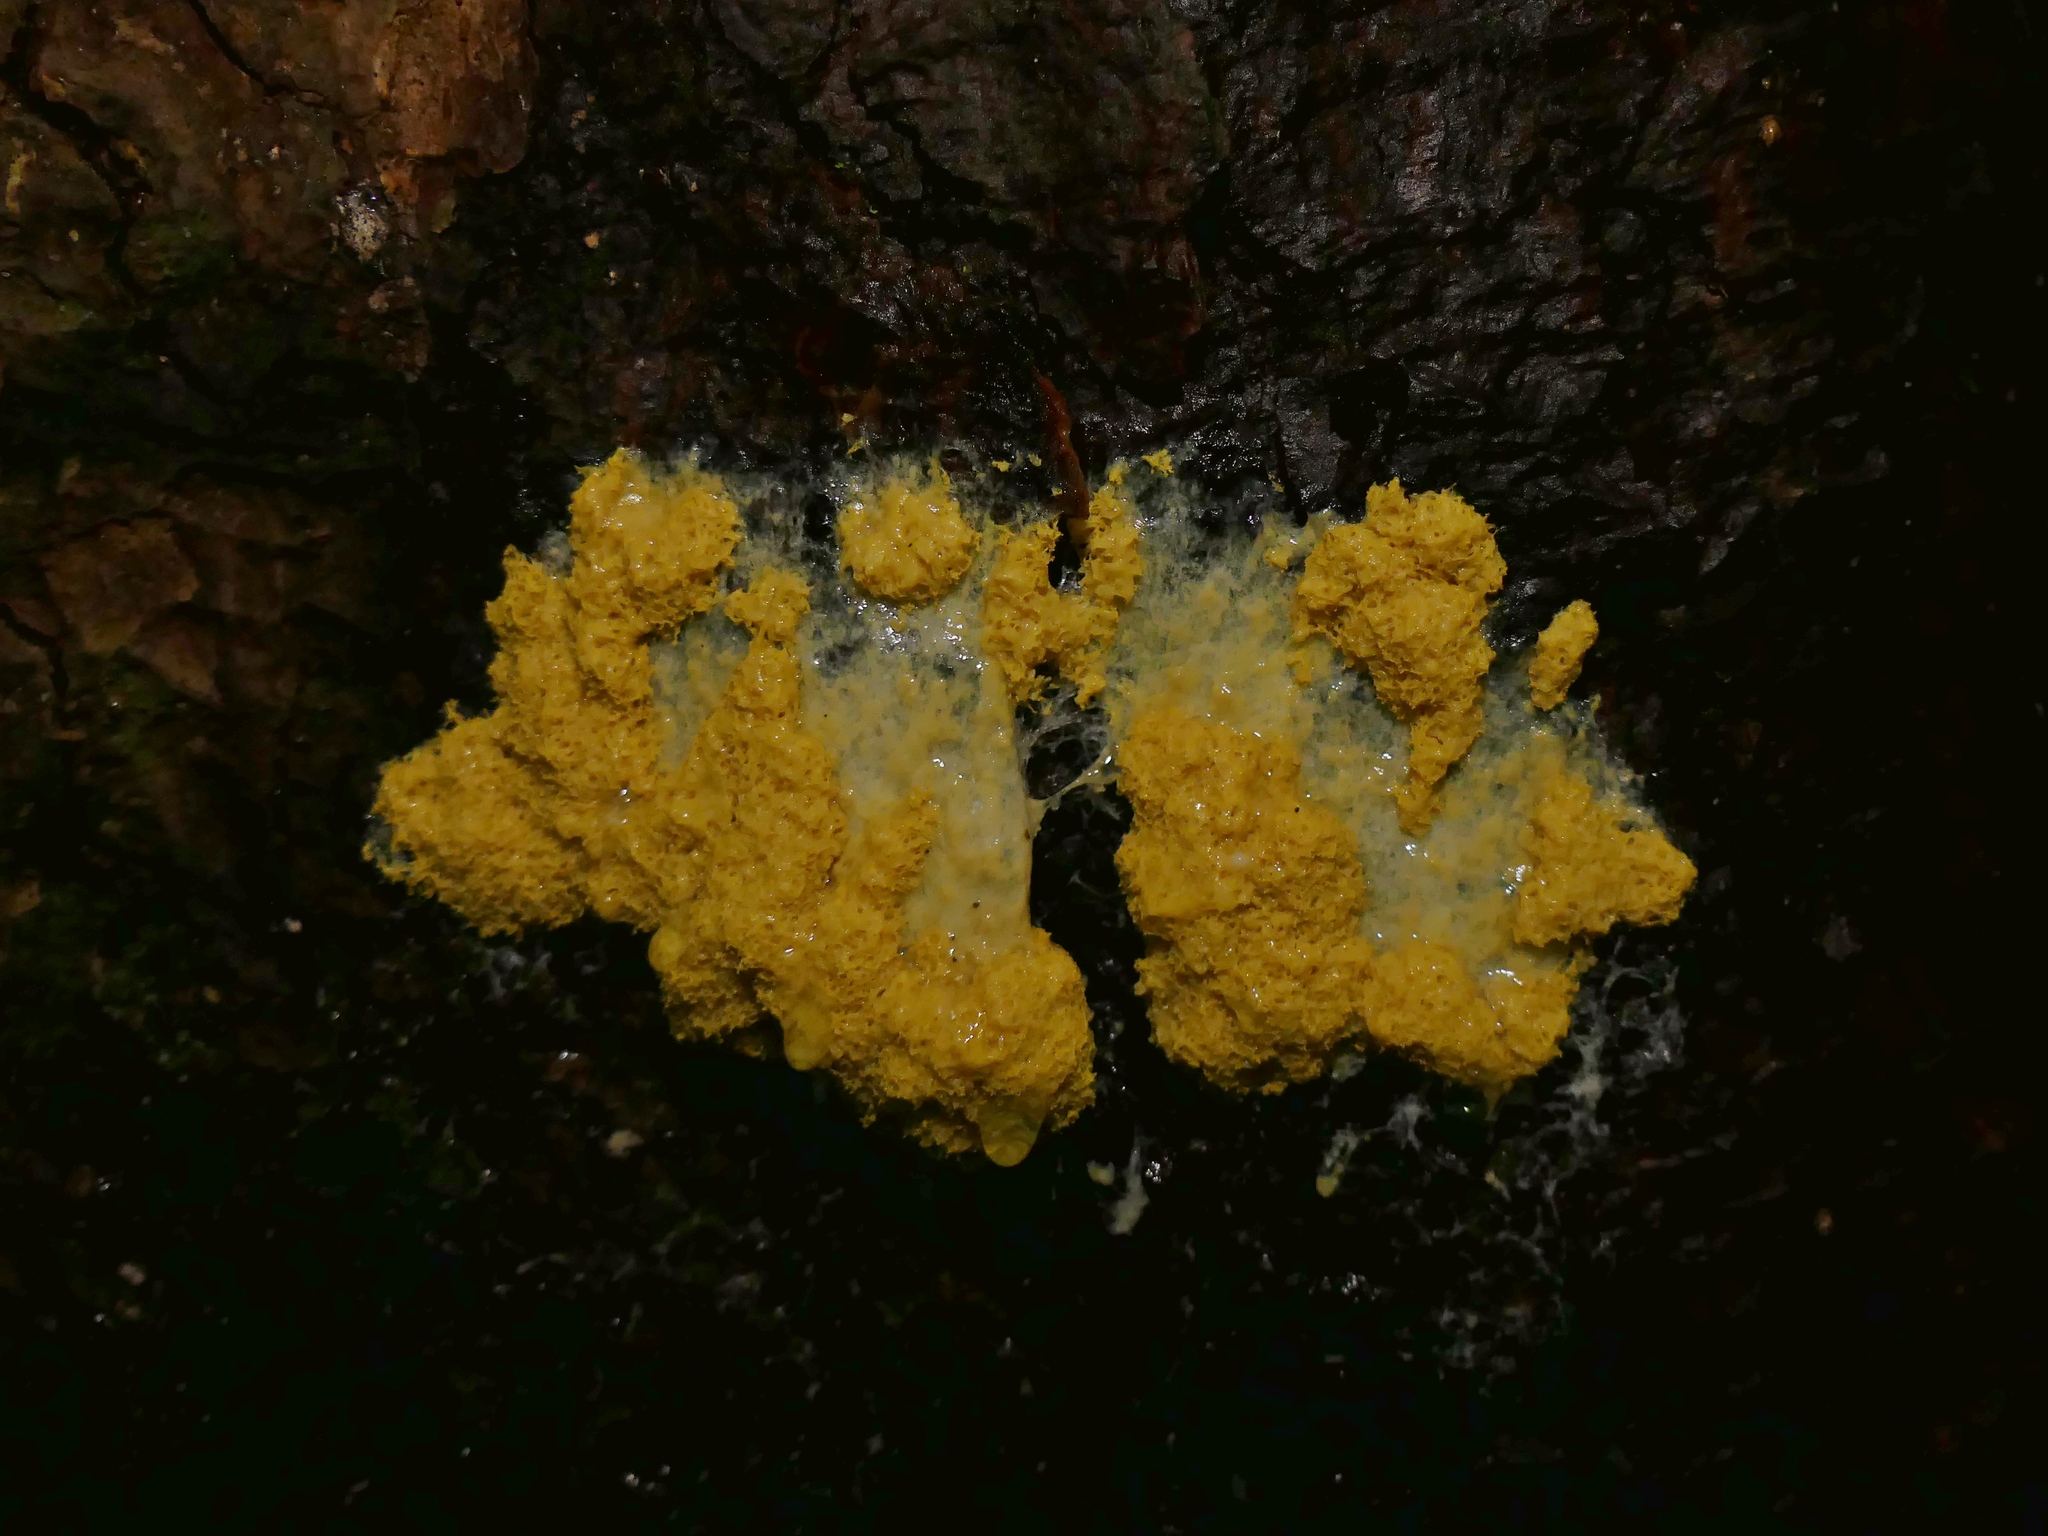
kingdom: Protozoa
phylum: Mycetozoa
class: Myxomycetes
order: Physarales
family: Physaraceae
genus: Fuligo
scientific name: Fuligo septica
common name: Dog vomit slime mold
